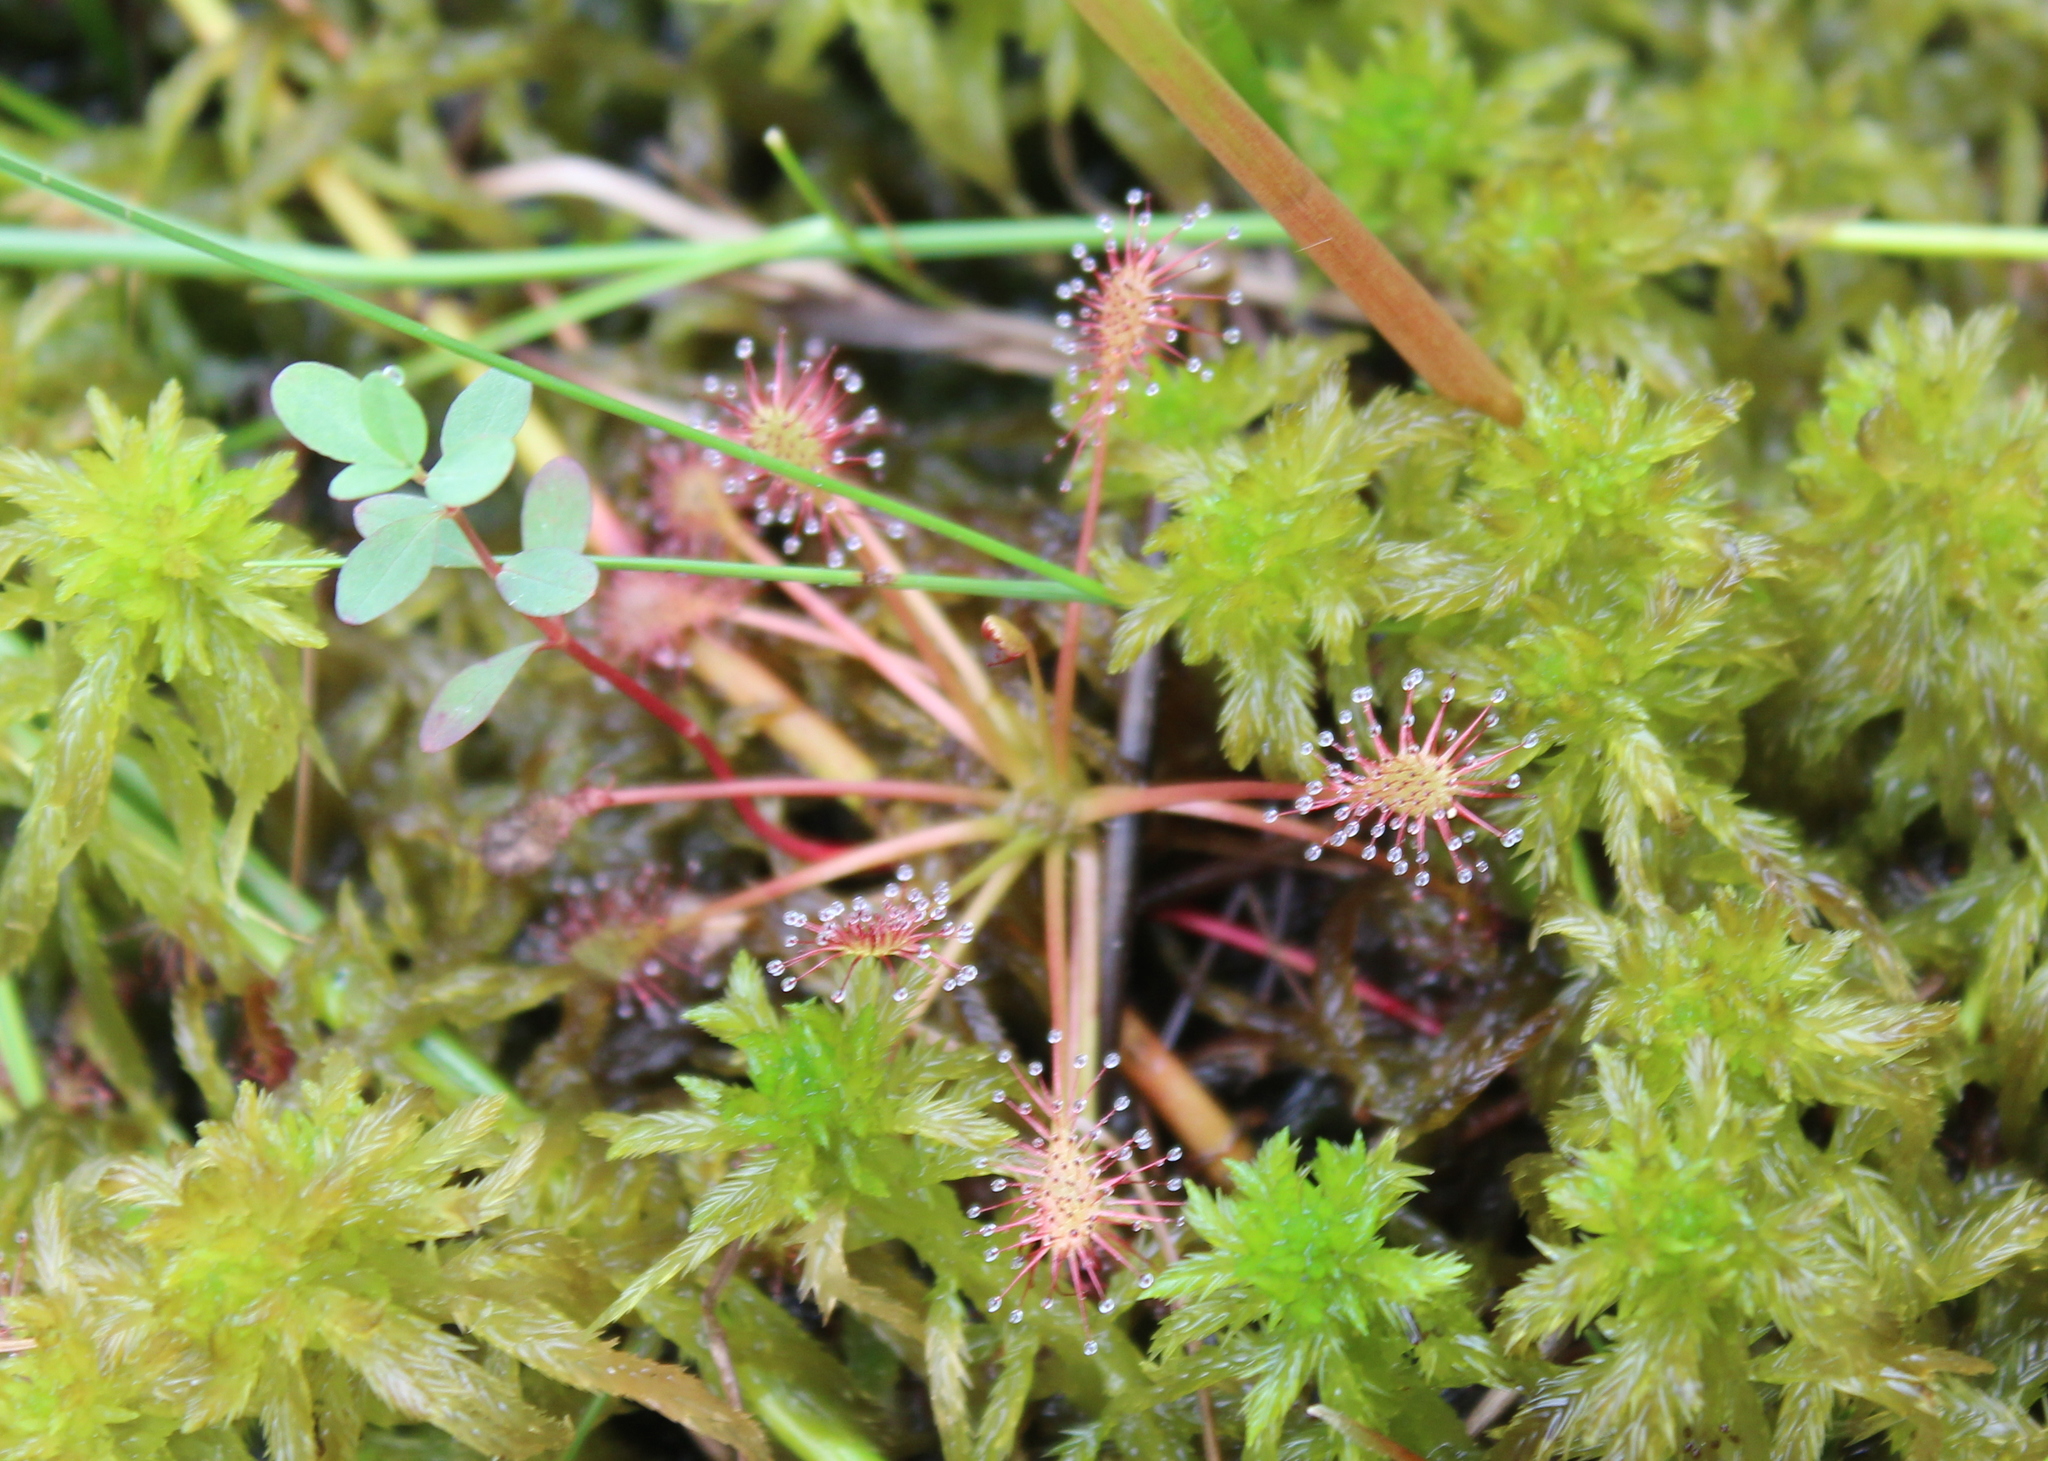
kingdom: Plantae
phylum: Tracheophyta
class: Magnoliopsida
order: Caryophyllales
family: Droseraceae
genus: Drosera
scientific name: Drosera intermedia
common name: Oblong-leaved sundew
